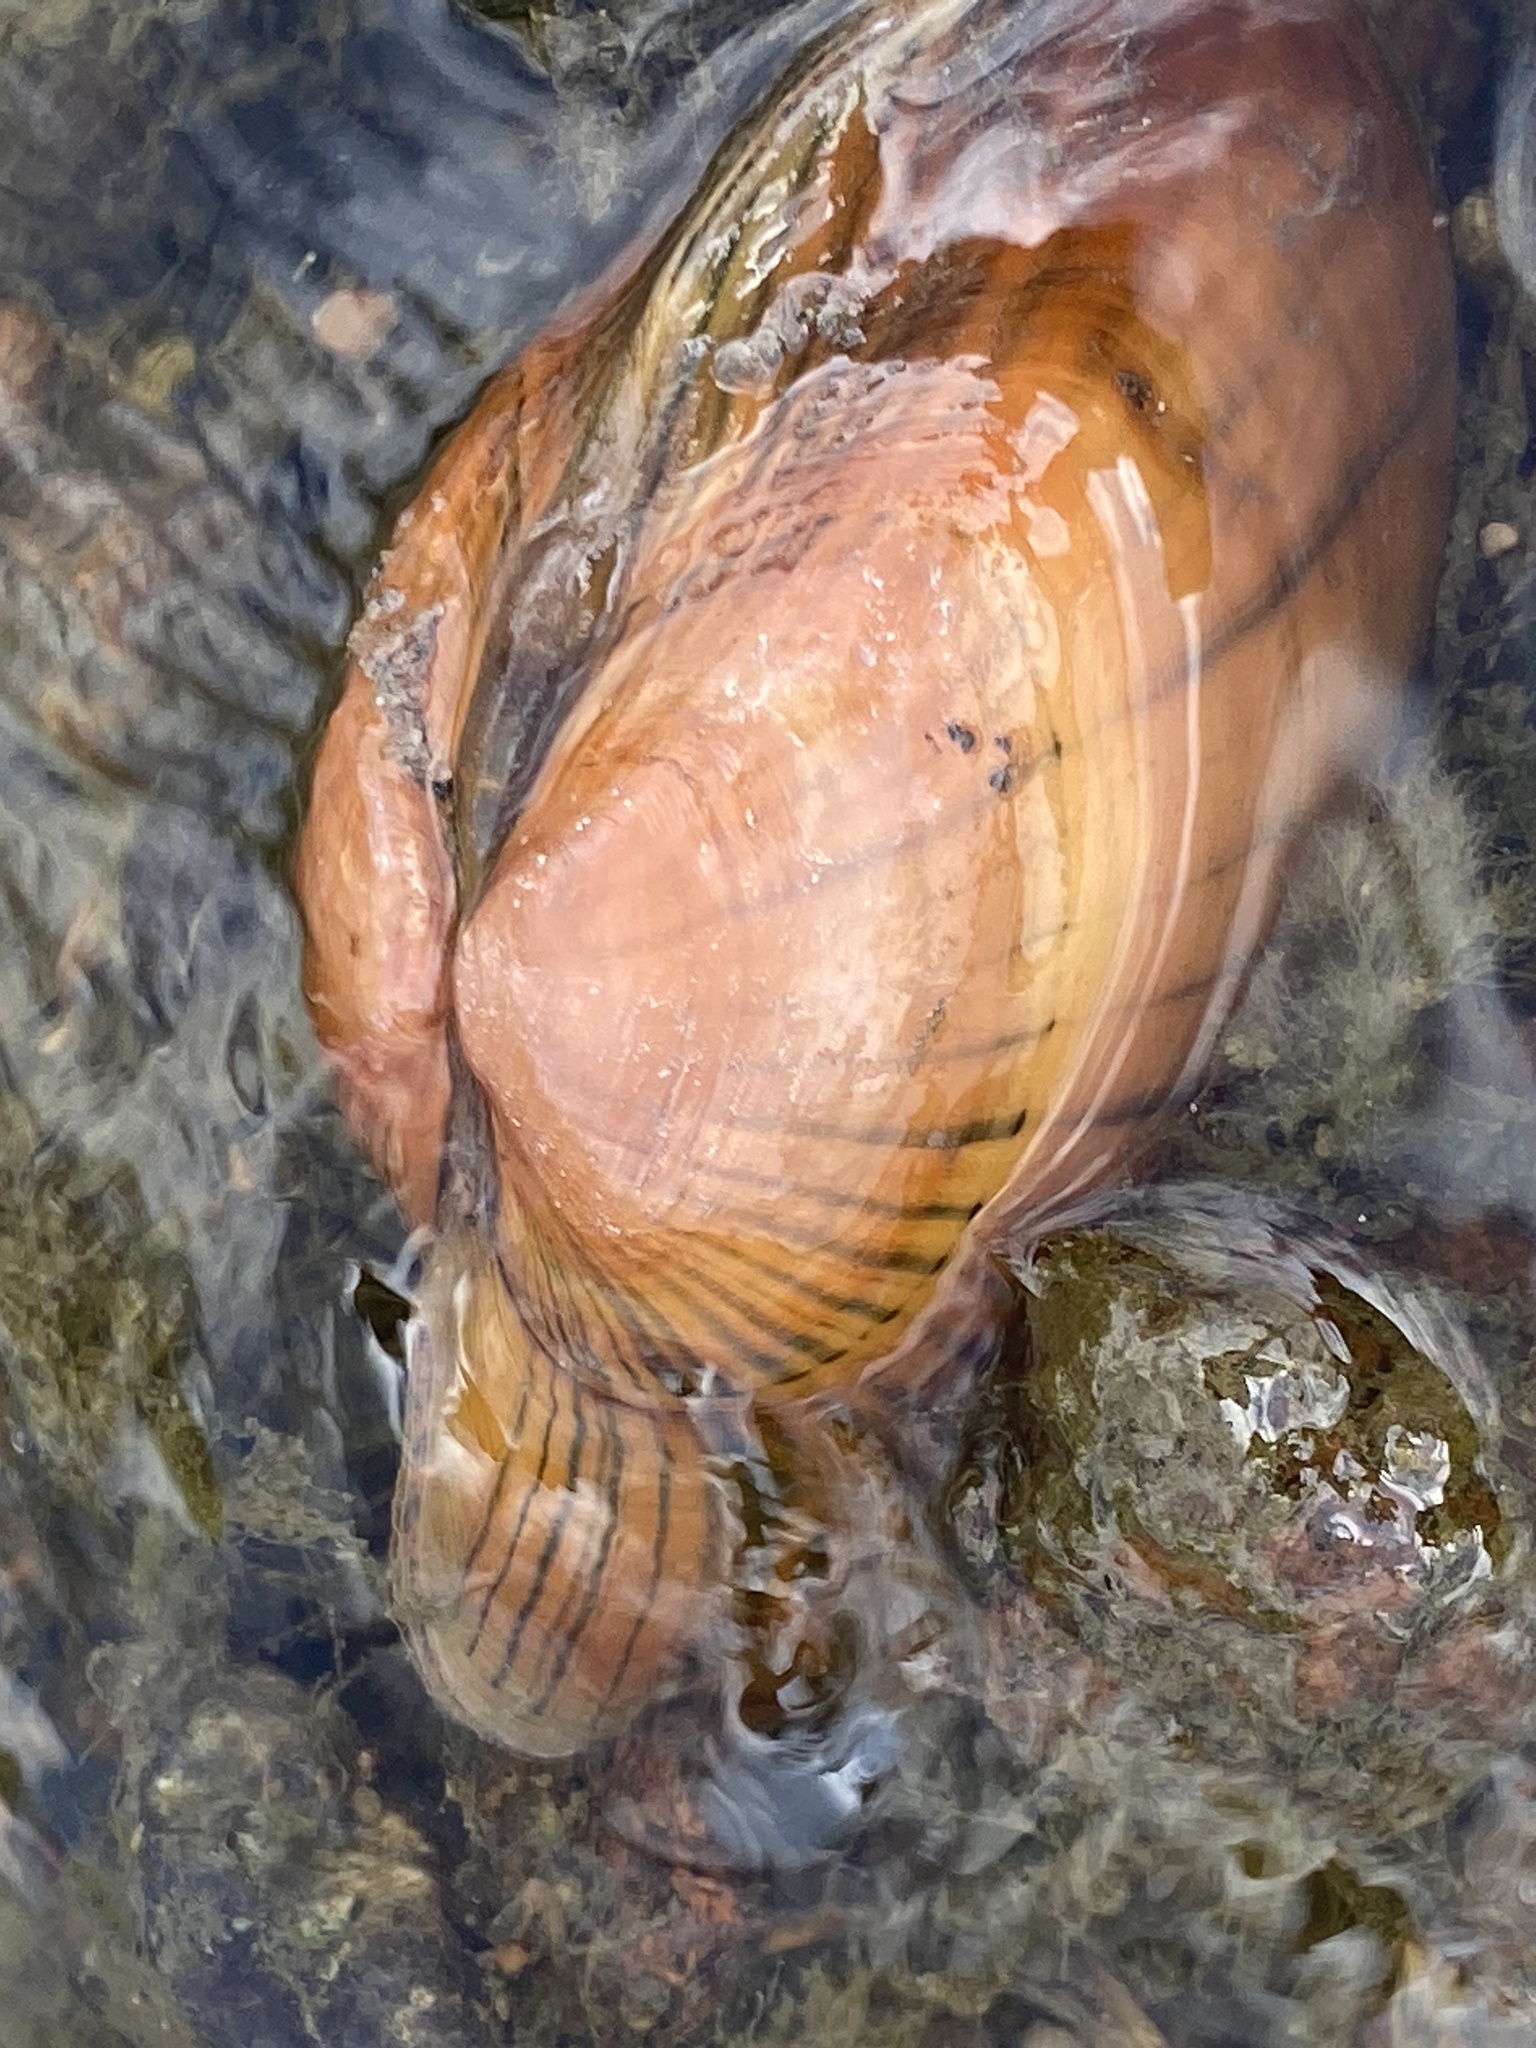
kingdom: Animalia
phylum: Mollusca
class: Bivalvia
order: Unionida
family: Unionidae
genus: Lampsilis
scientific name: Lampsilis cardium
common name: Plain pocketbook
